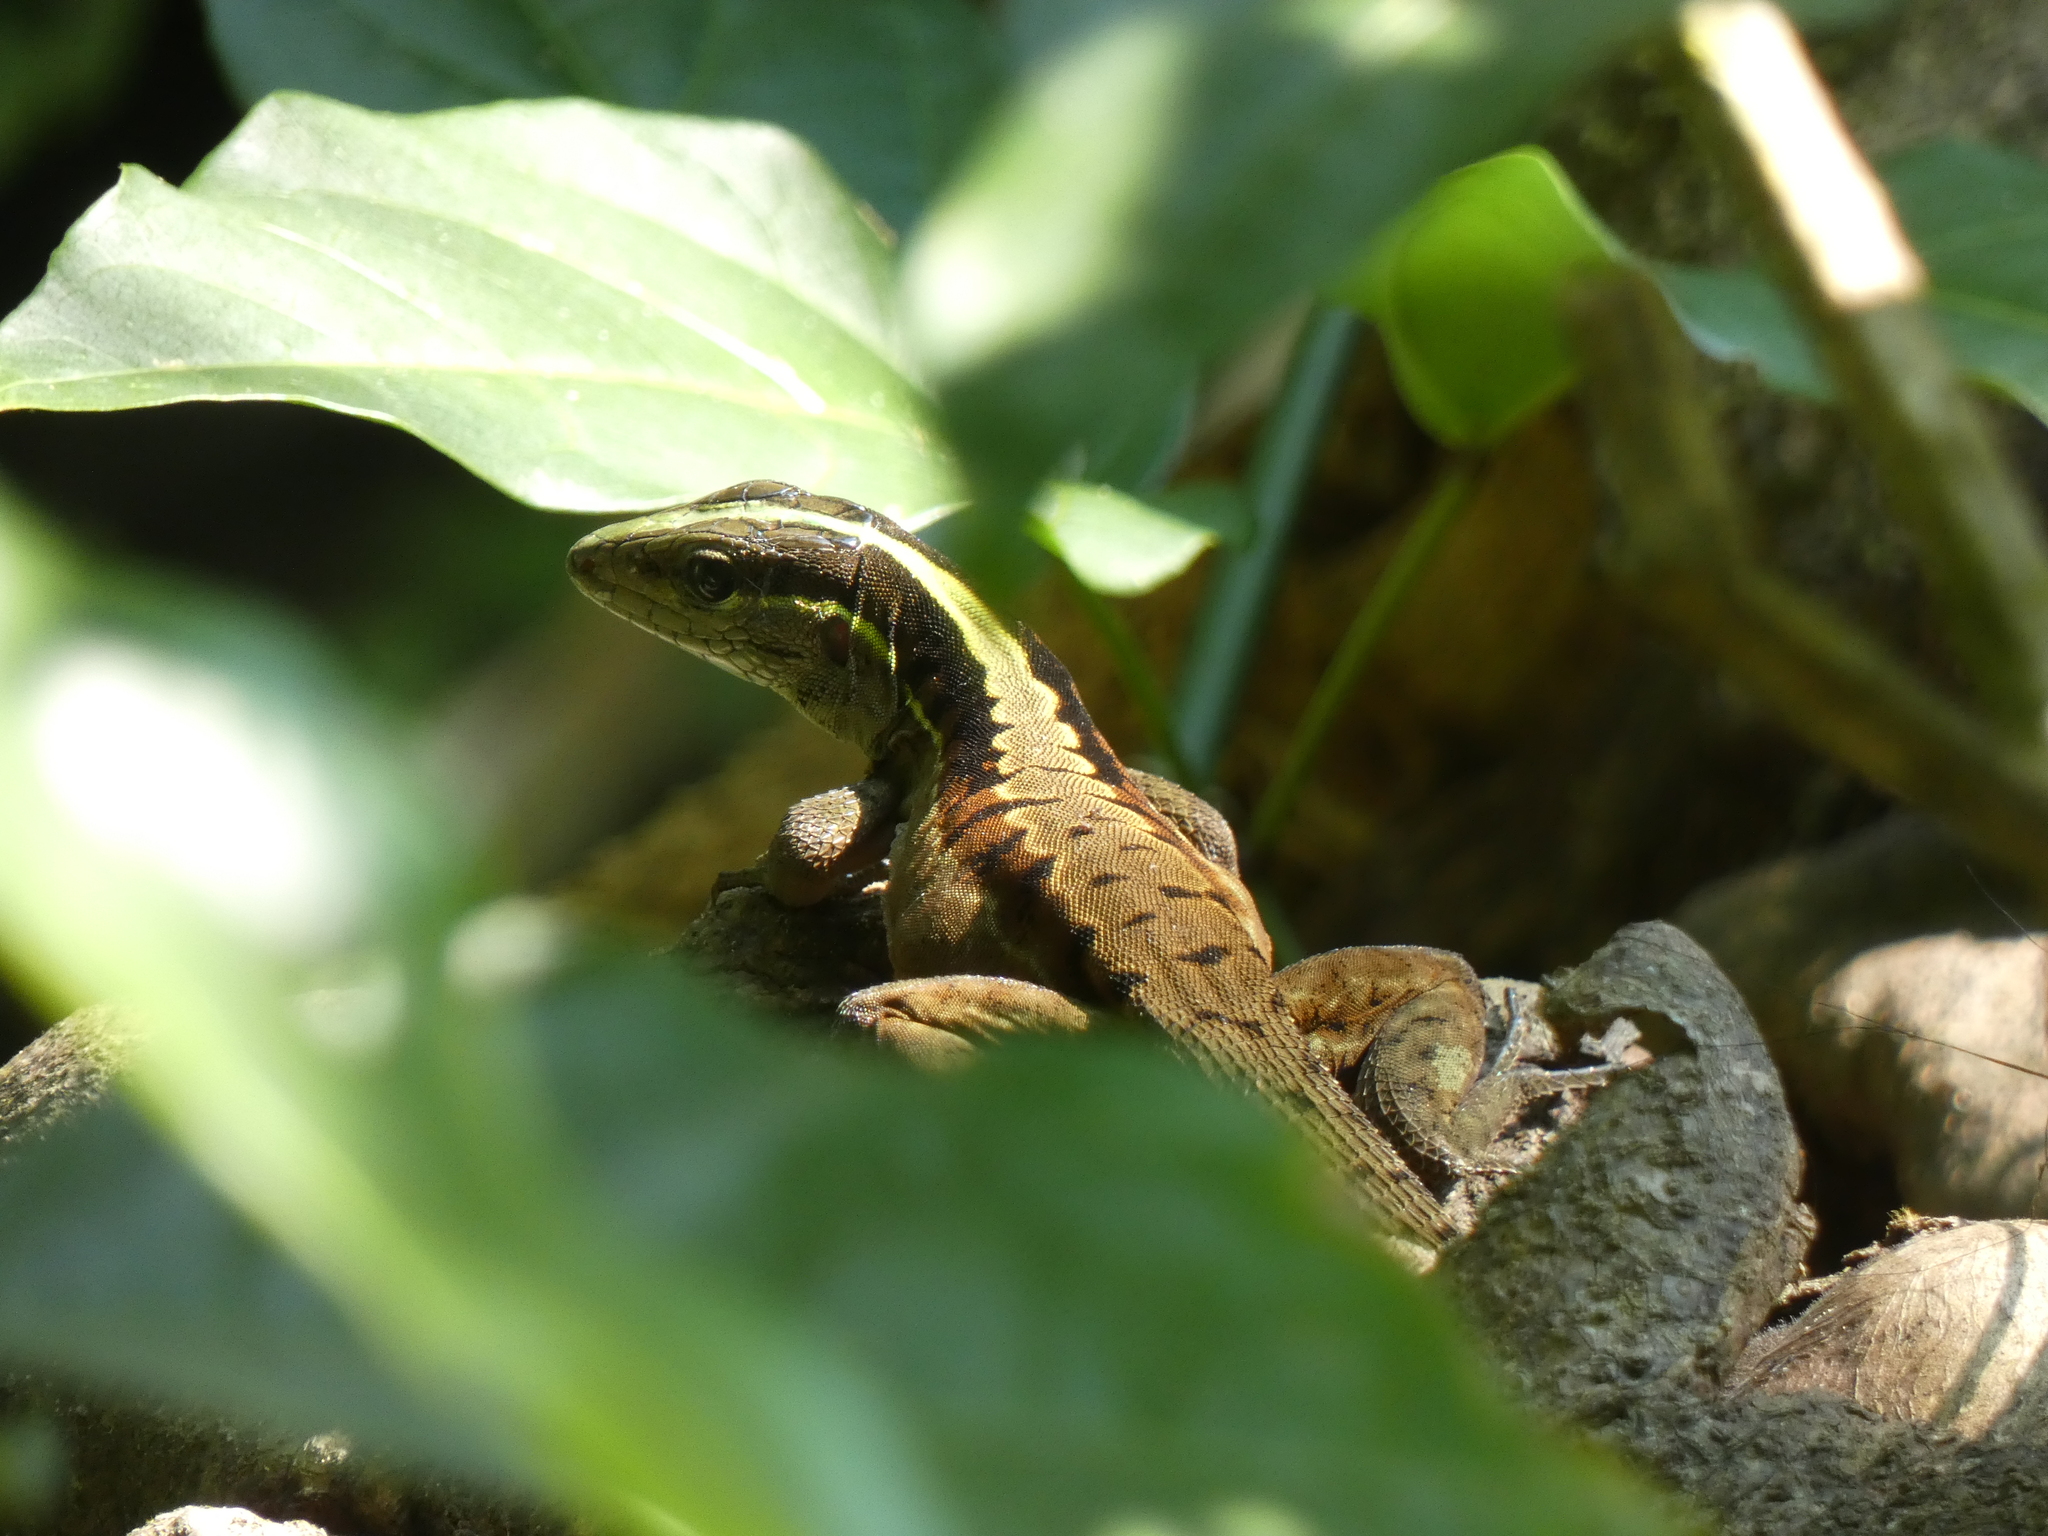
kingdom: Animalia
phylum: Chordata
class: Squamata
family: Teiidae
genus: Kentropyx
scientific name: Kentropyx pelviceps
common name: Forest whiptail
